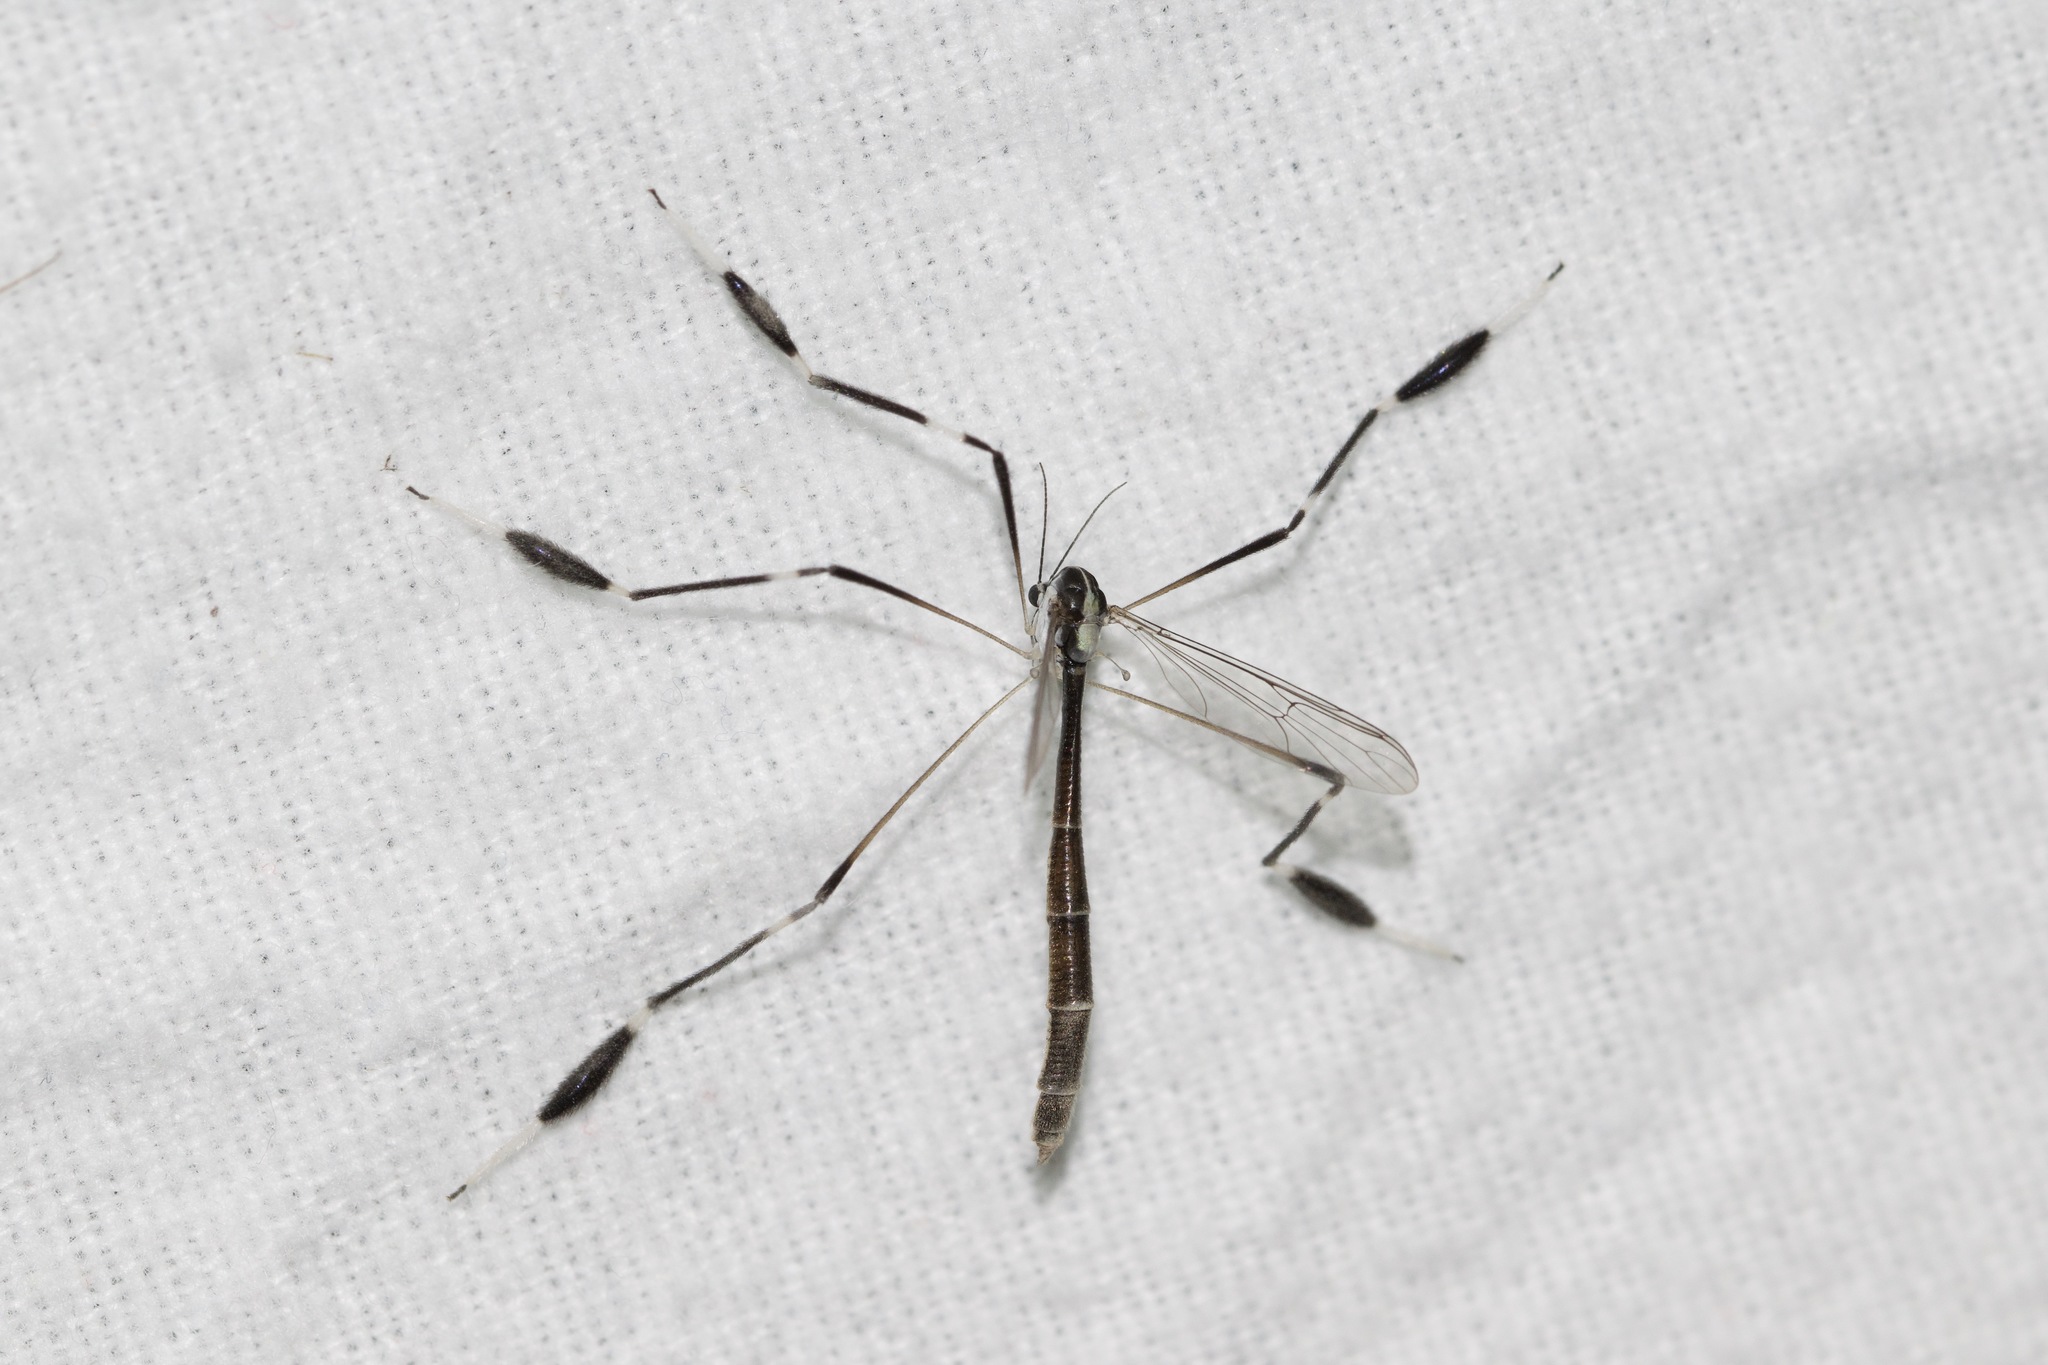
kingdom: Animalia
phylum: Arthropoda
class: Insecta
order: Diptera
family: Ptychopteridae
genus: Bittacomorpha
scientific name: Bittacomorpha clavipes
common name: Eastern phantom crane fly
